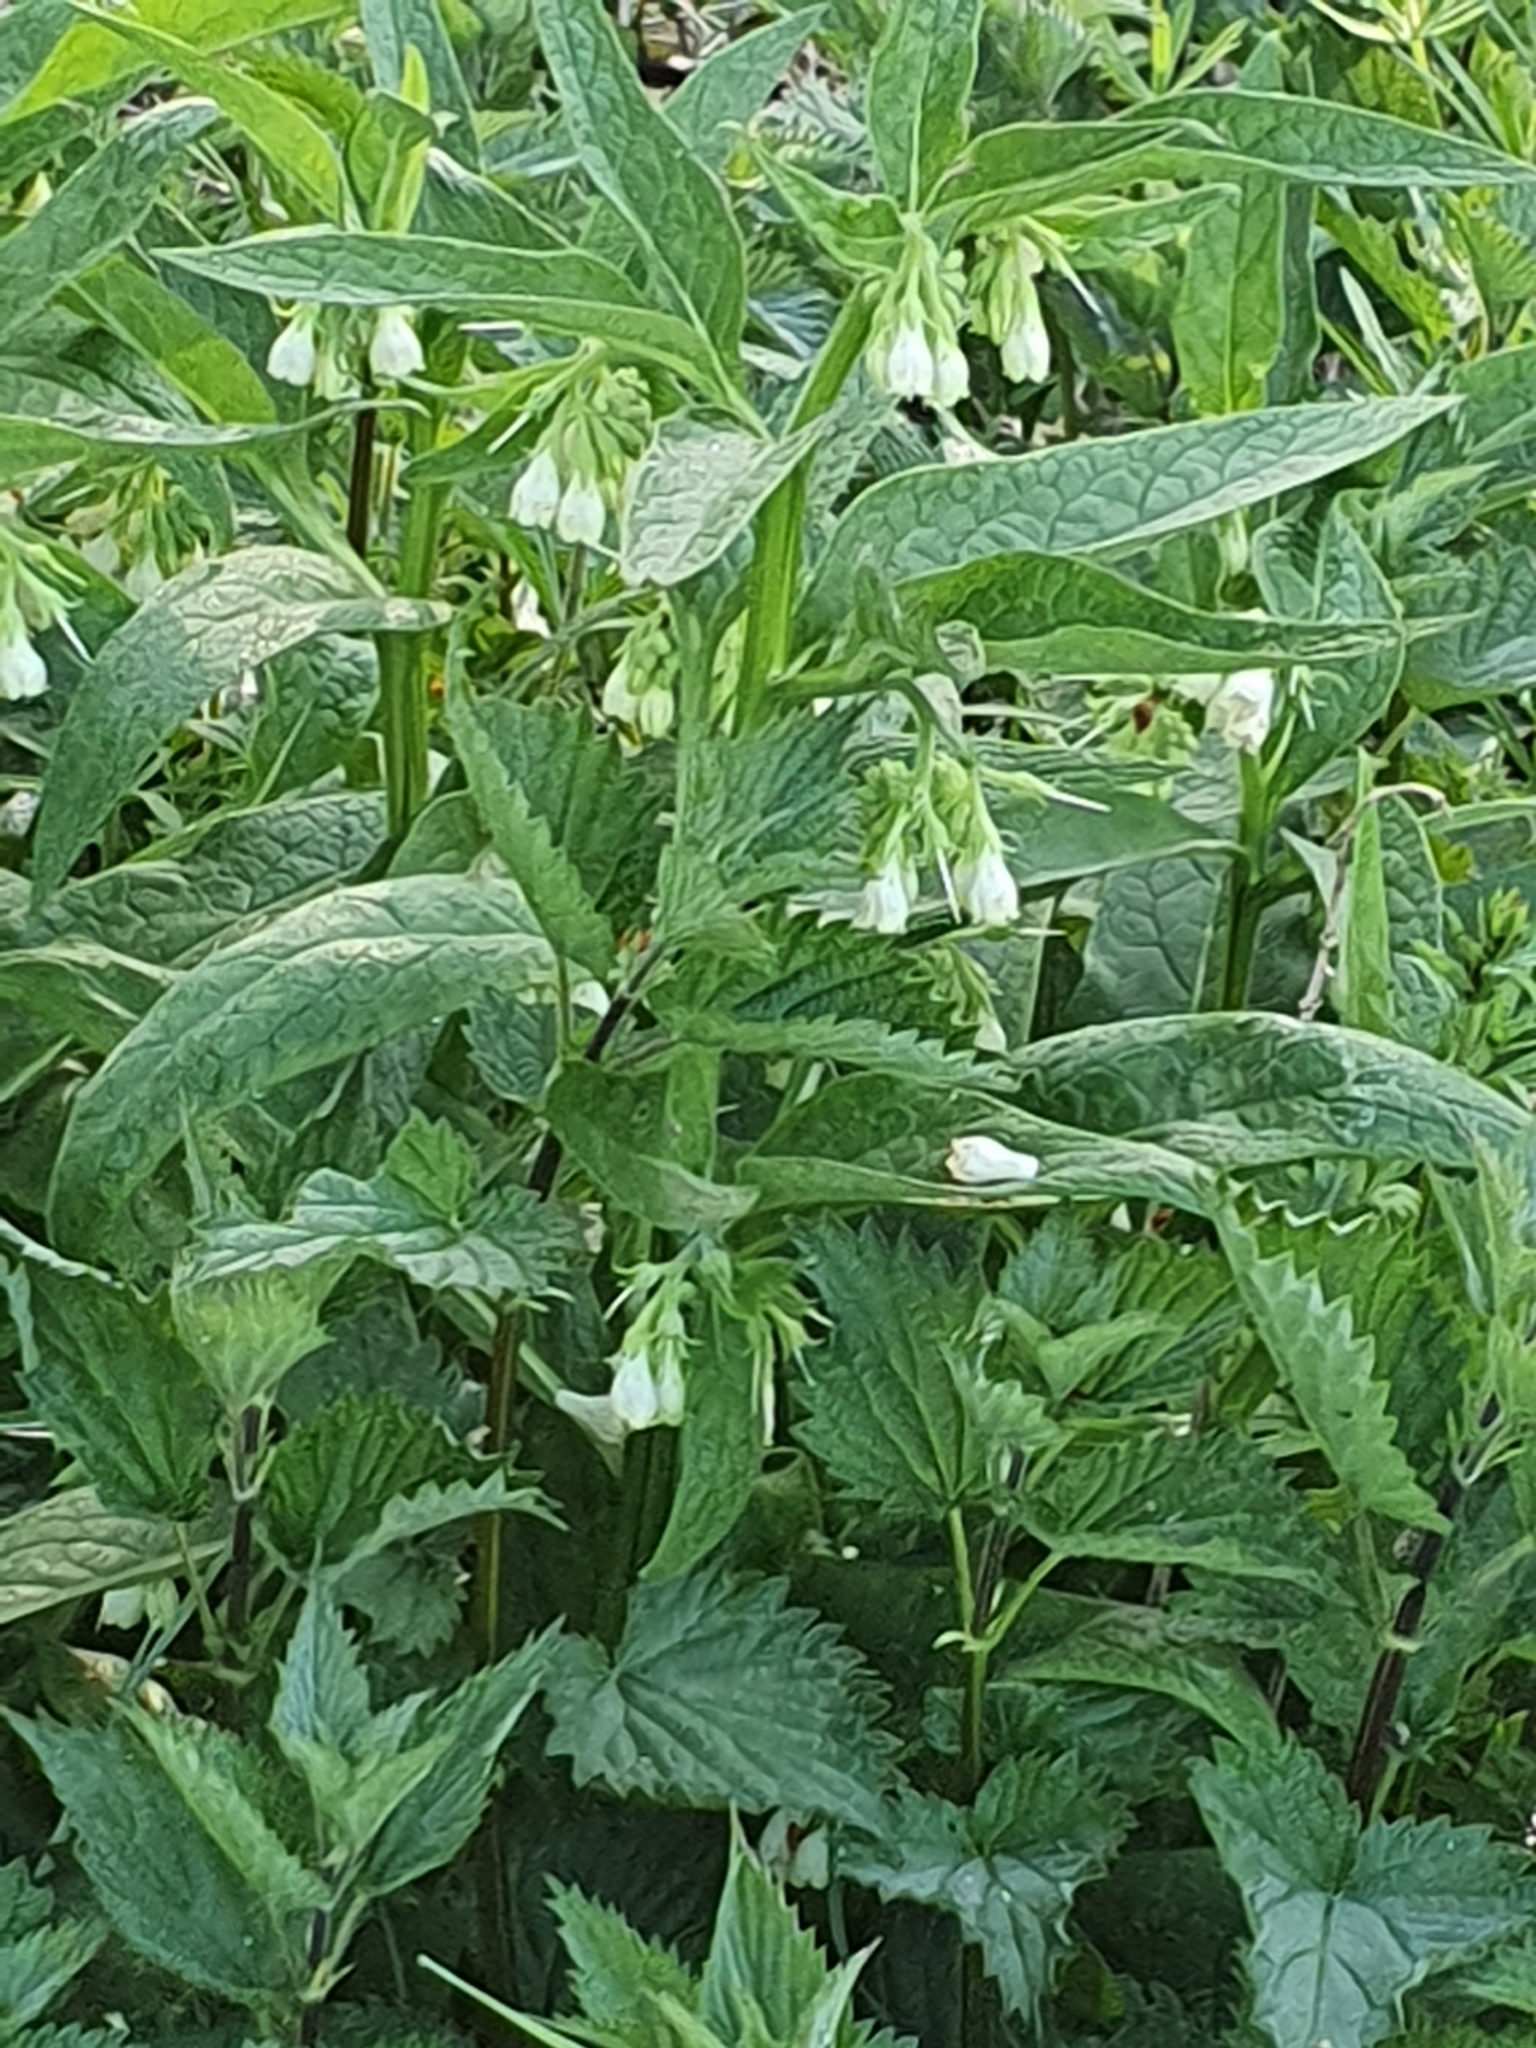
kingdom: Plantae
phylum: Tracheophyta
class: Magnoliopsida
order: Boraginales
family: Boraginaceae
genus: Symphytum
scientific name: Symphytum officinale
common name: Common comfrey
